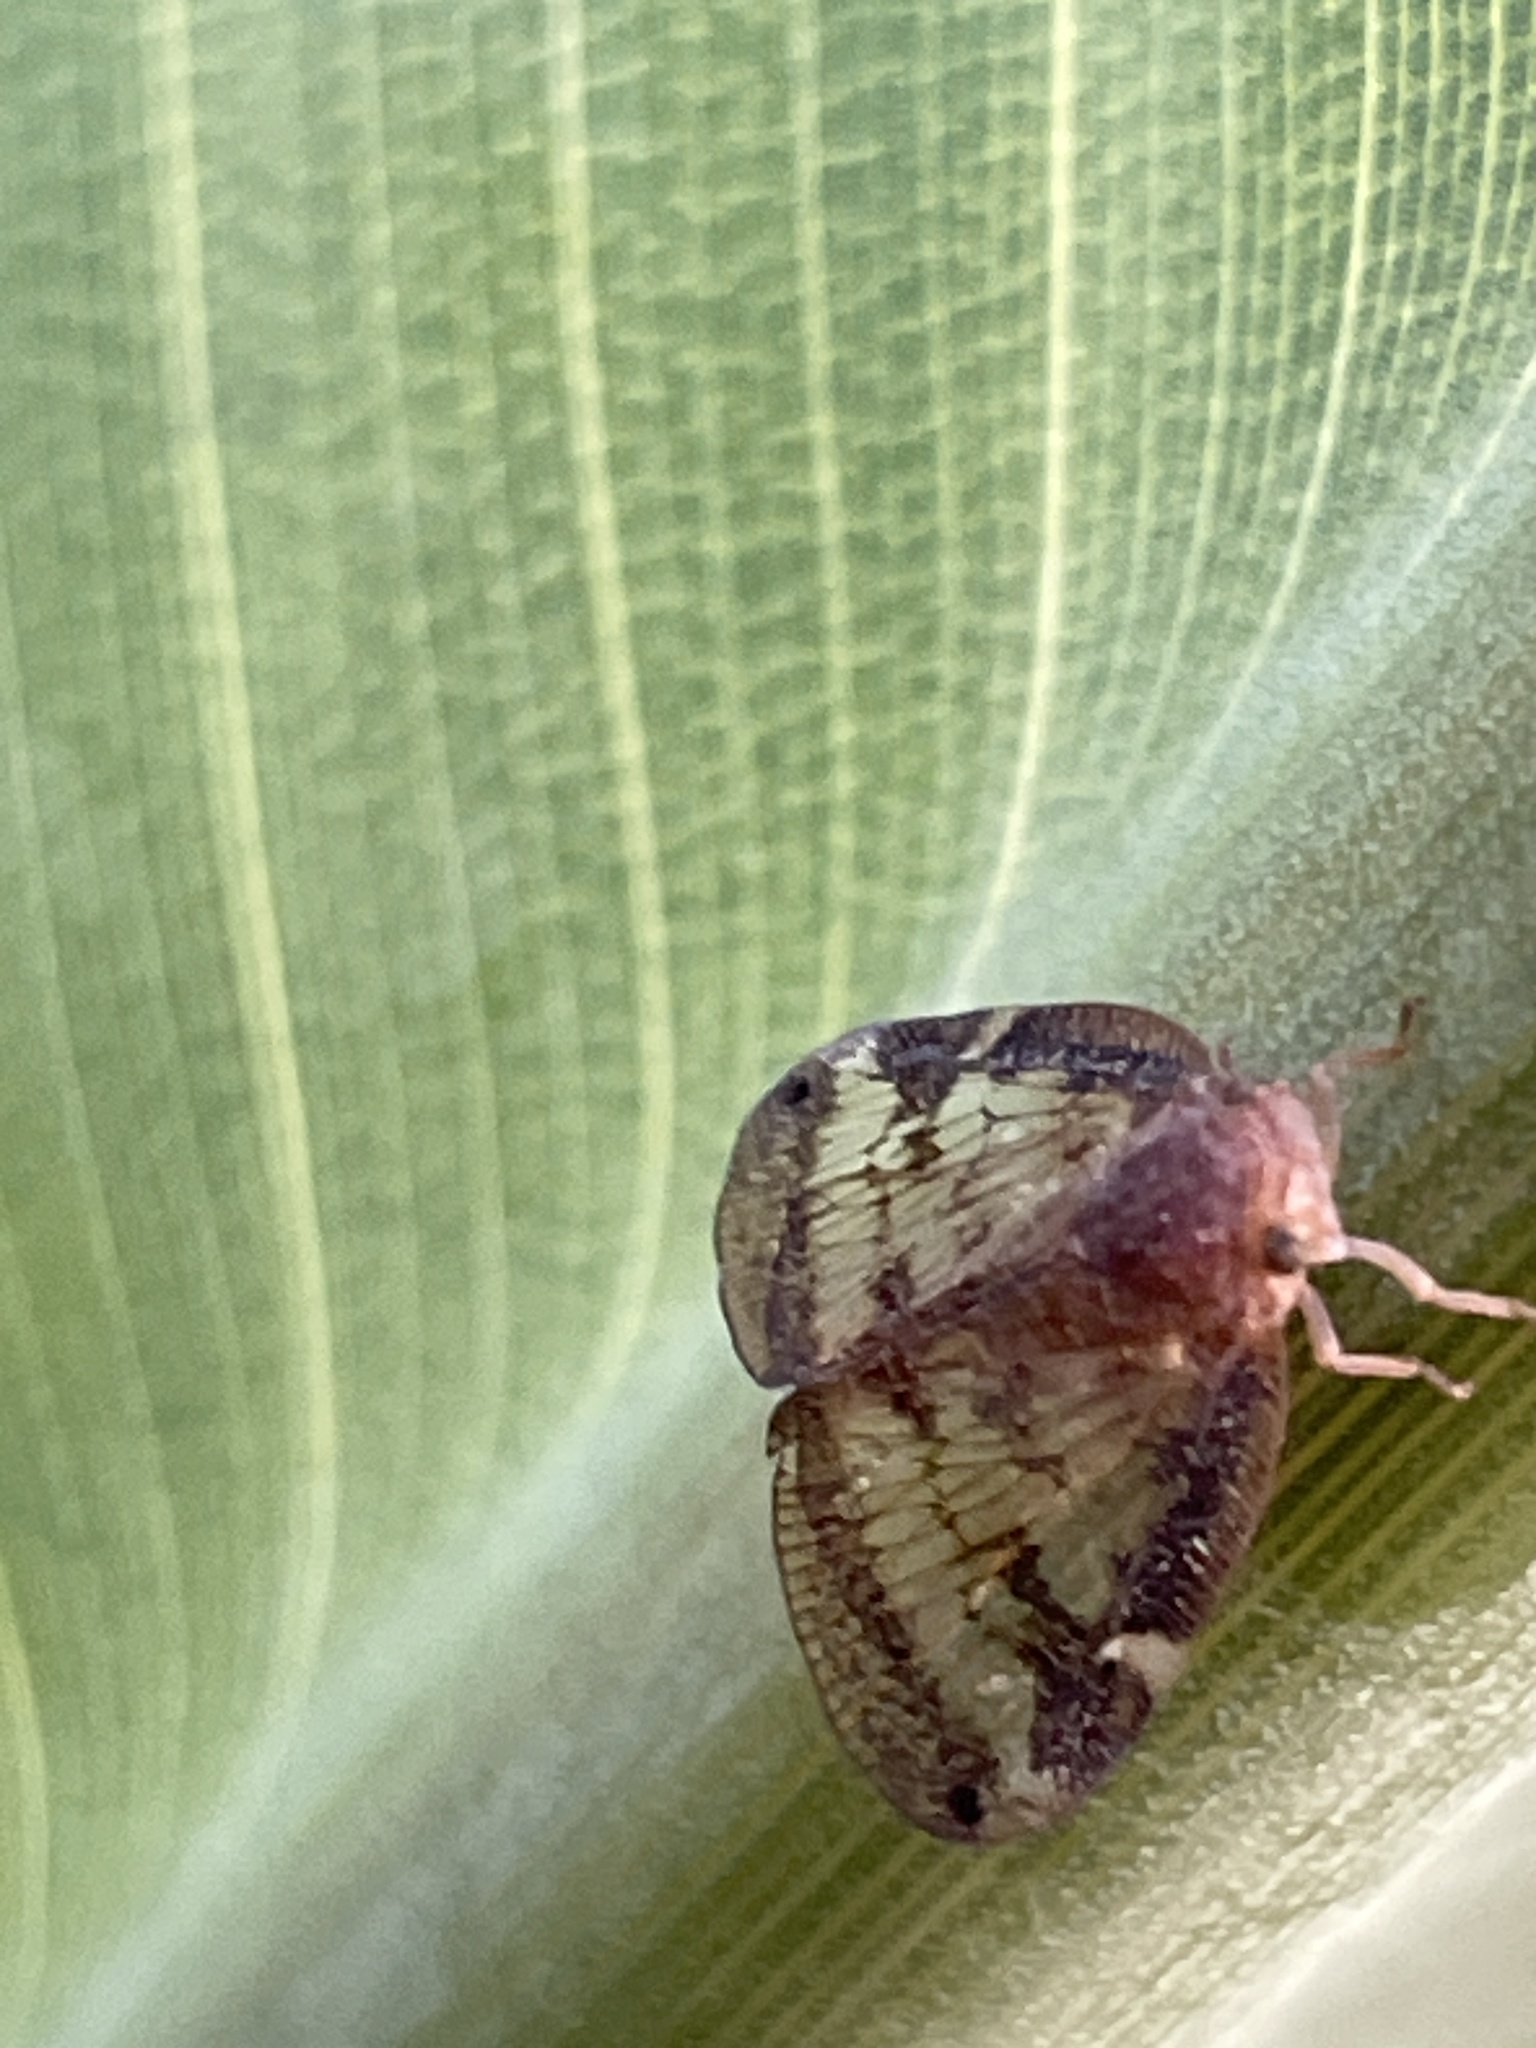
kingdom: Animalia
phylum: Arthropoda
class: Insecta
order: Hemiptera
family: Ricaniidae
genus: Scolypopa
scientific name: Scolypopa australis
